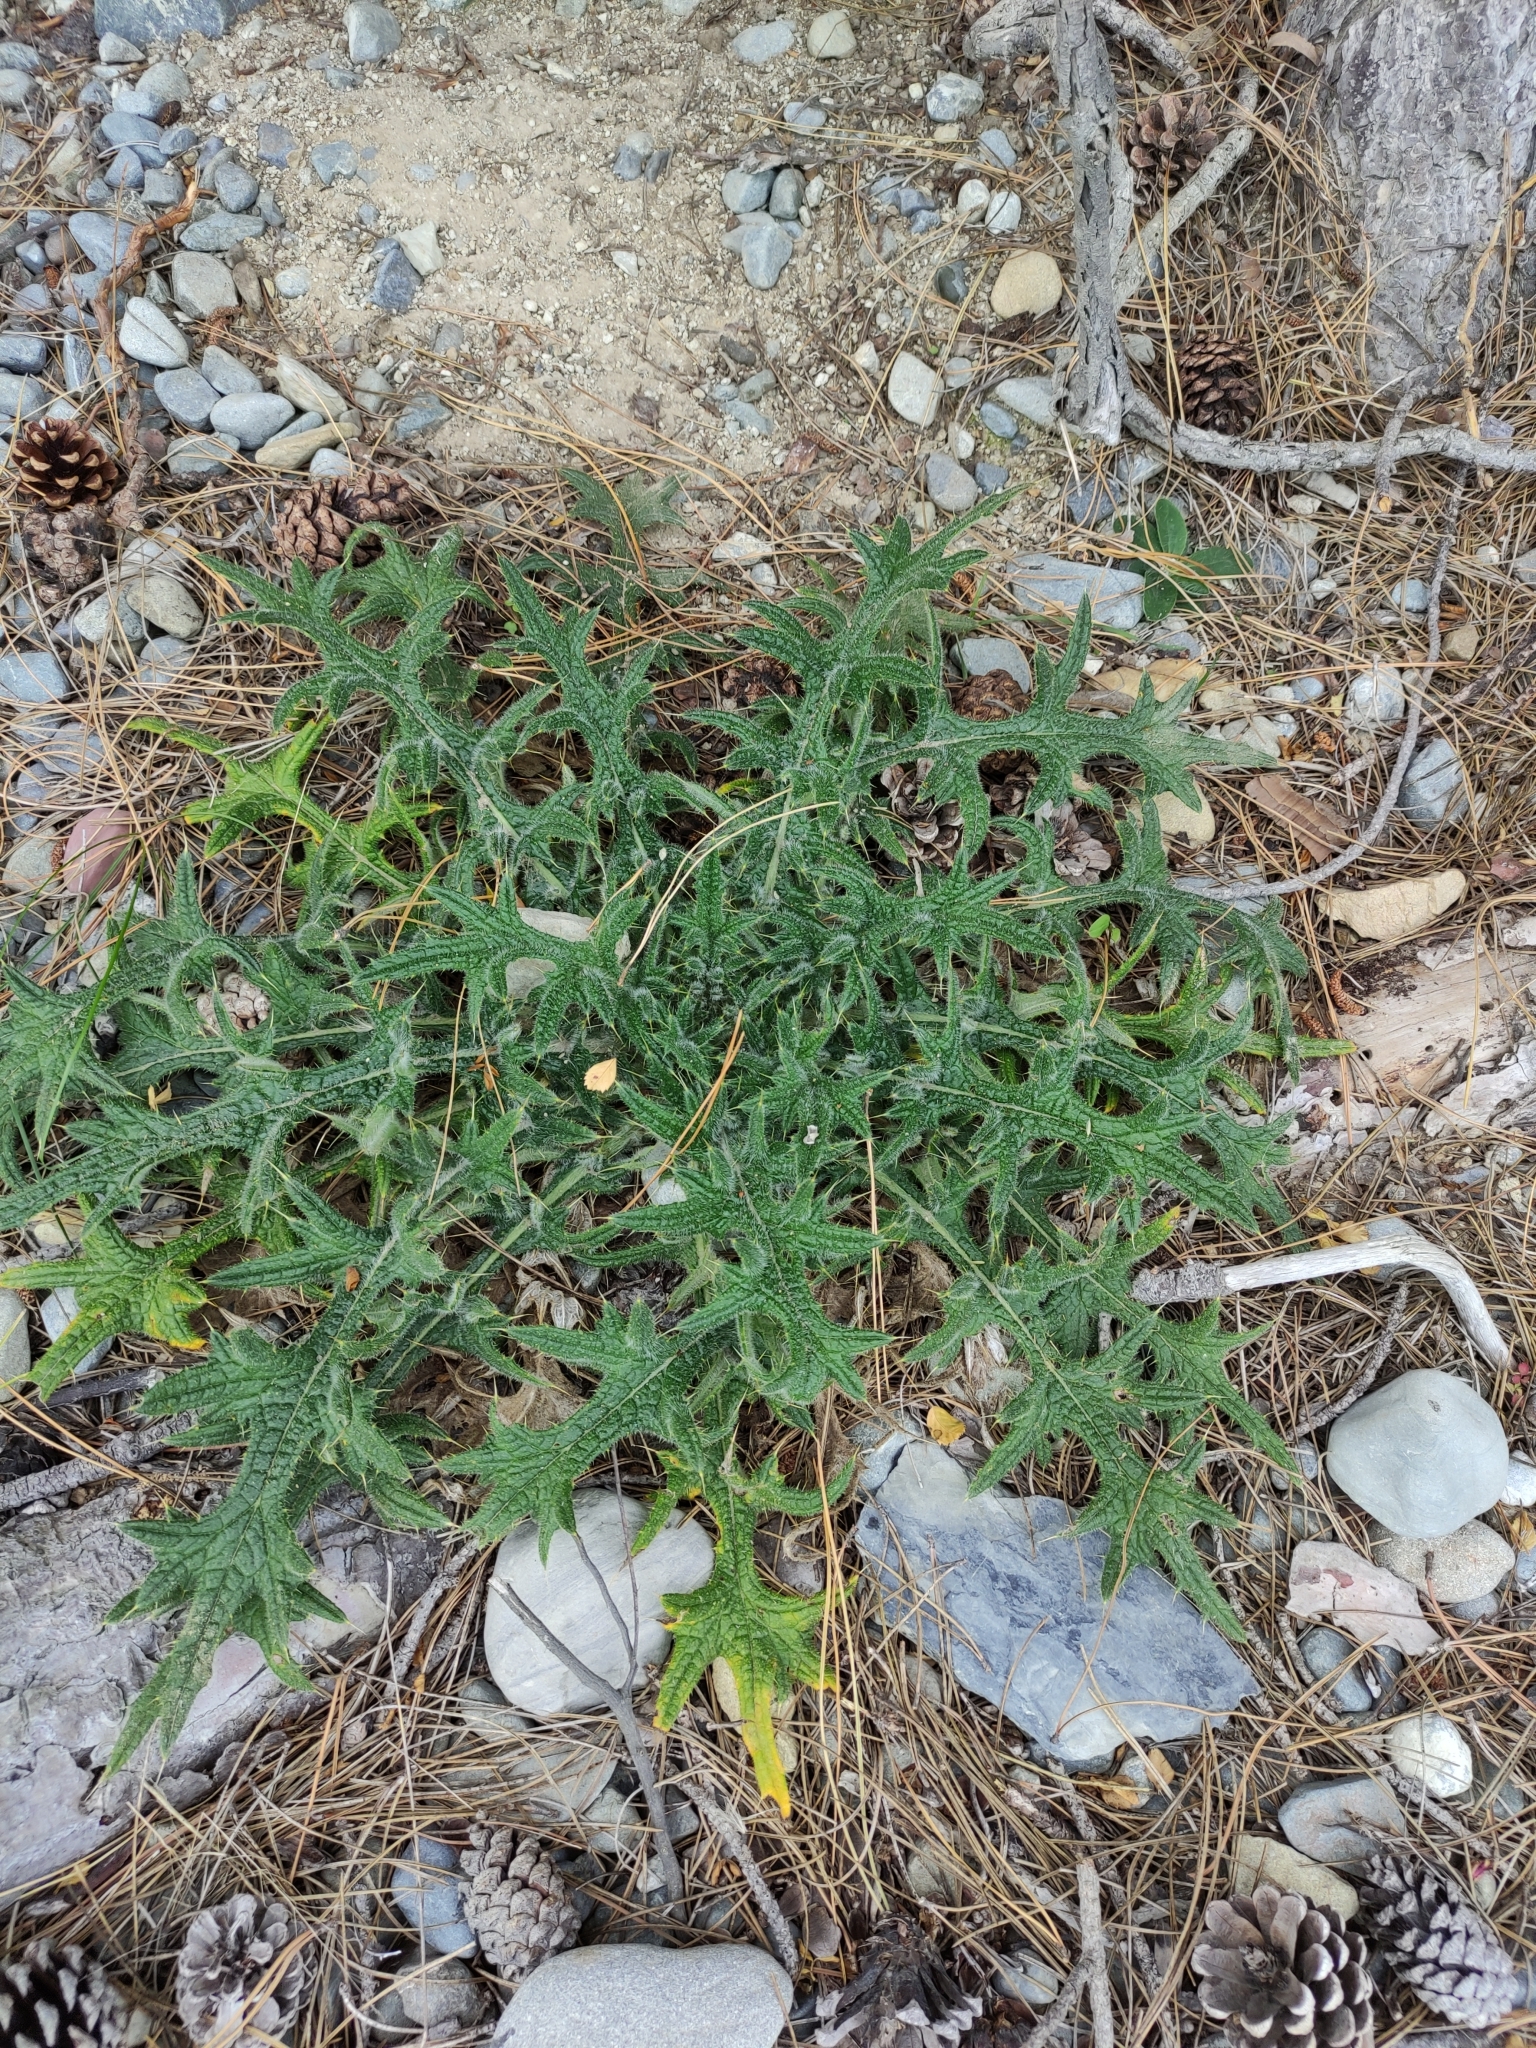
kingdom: Plantae
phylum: Tracheophyta
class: Magnoliopsida
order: Asterales
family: Asteraceae
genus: Cirsium
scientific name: Cirsium vulgare
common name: Bull thistle
